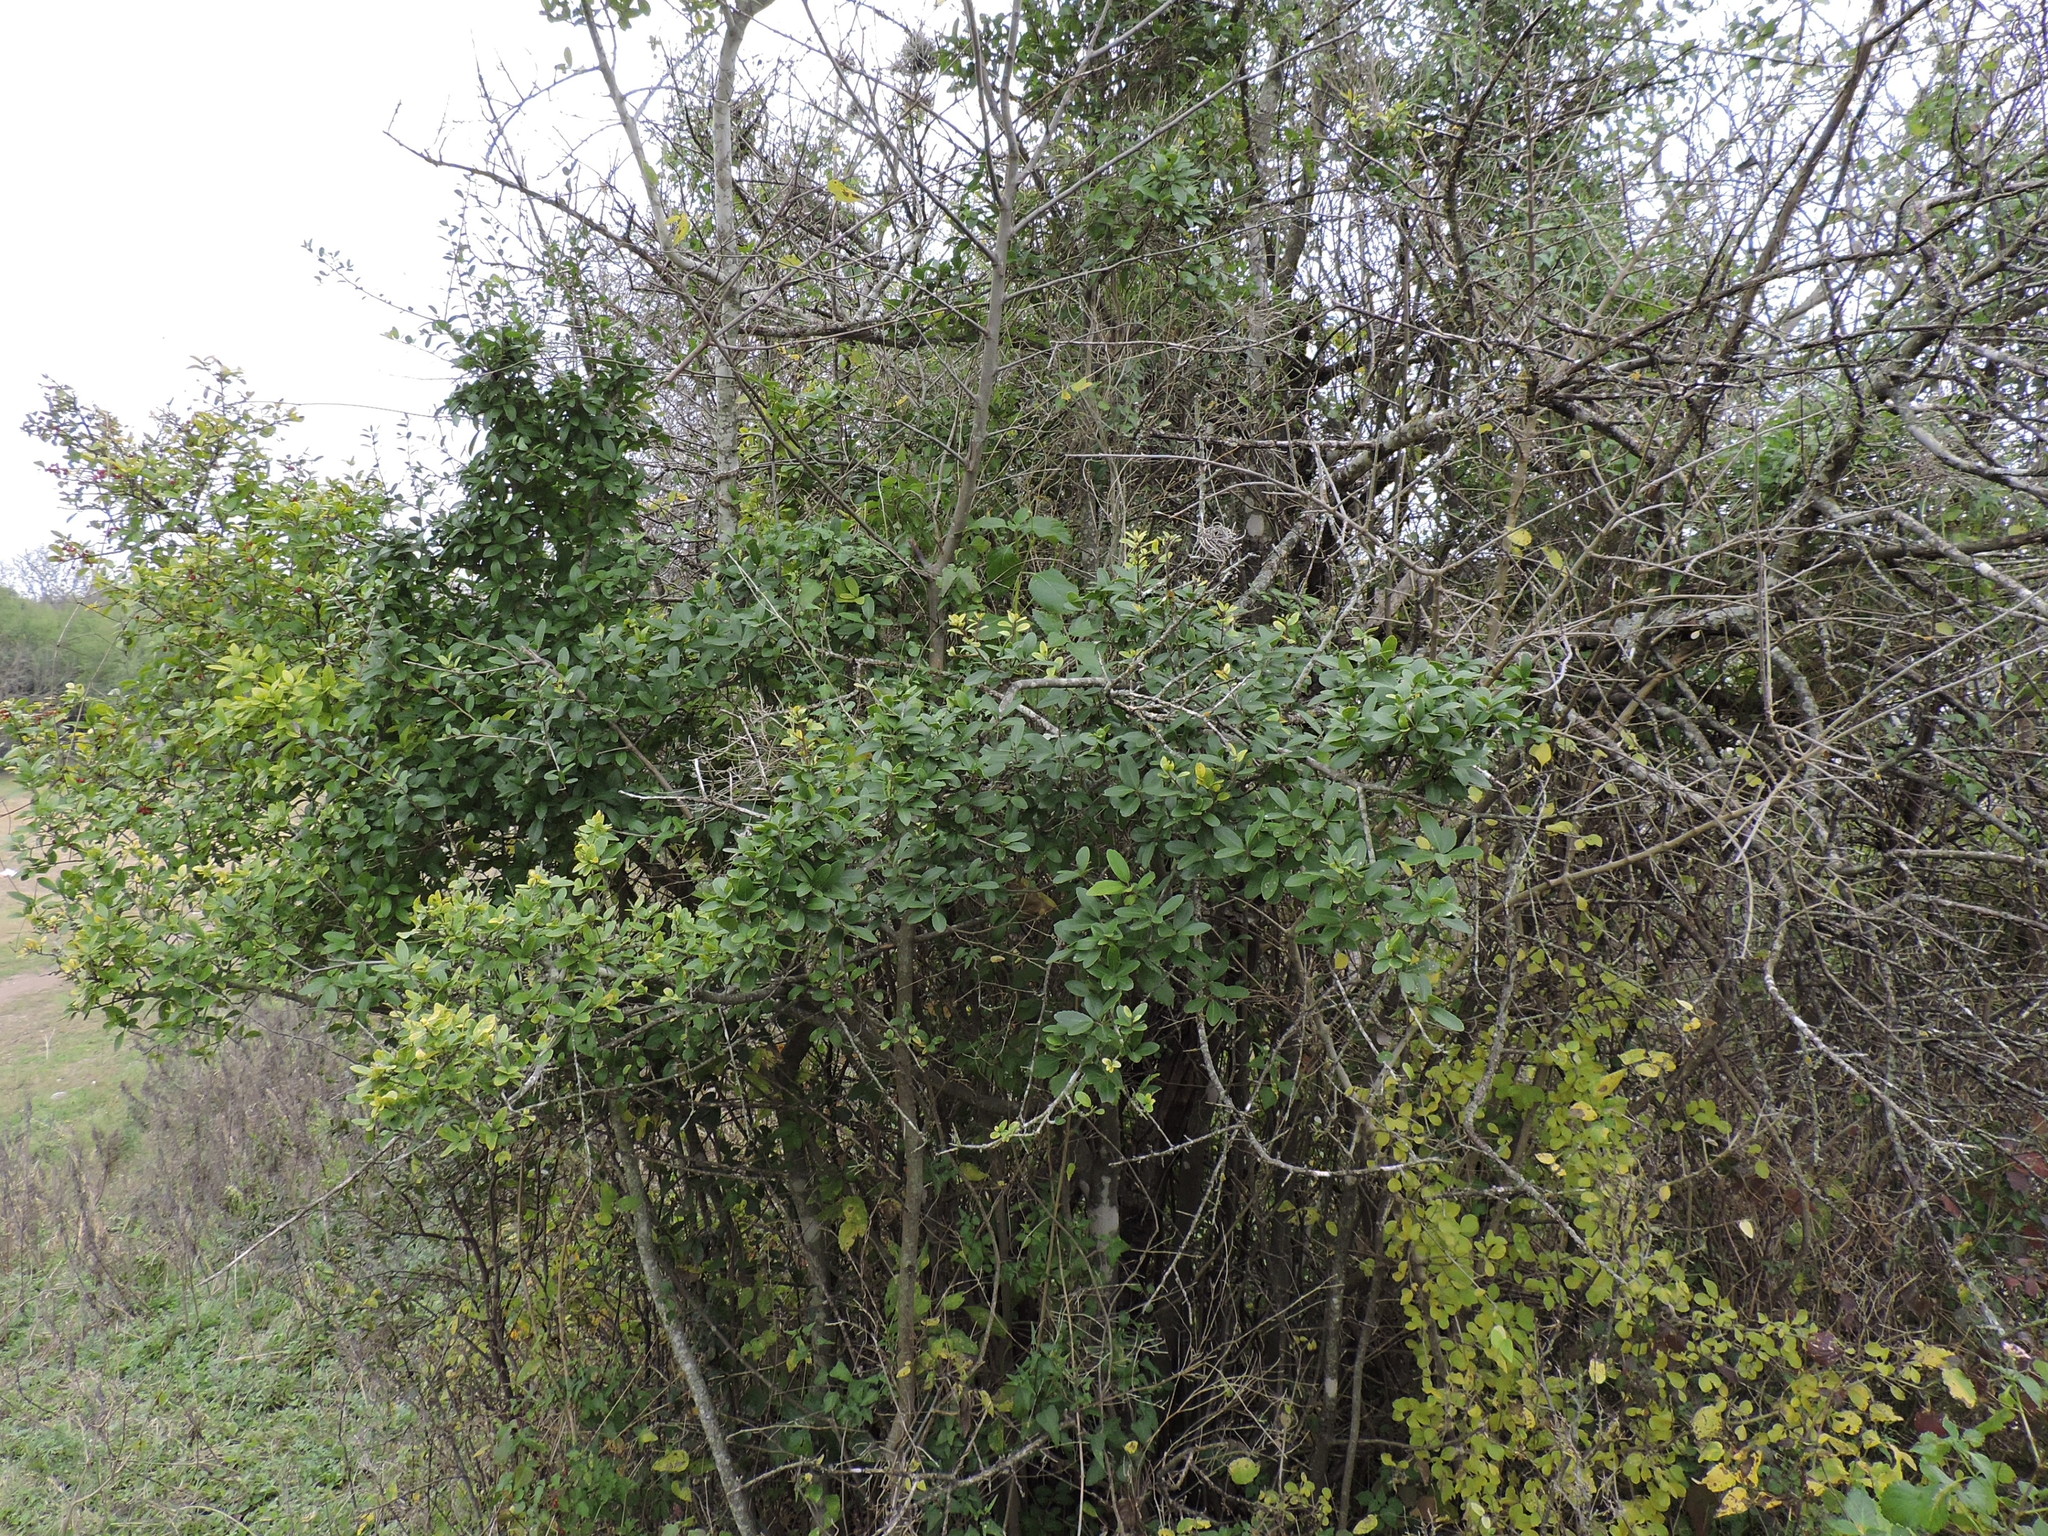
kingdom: Plantae
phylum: Tracheophyta
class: Magnoliopsida
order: Aquifoliales
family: Aquifoliaceae
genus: Ilex
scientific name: Ilex vomitoria
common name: Yaupon holly
